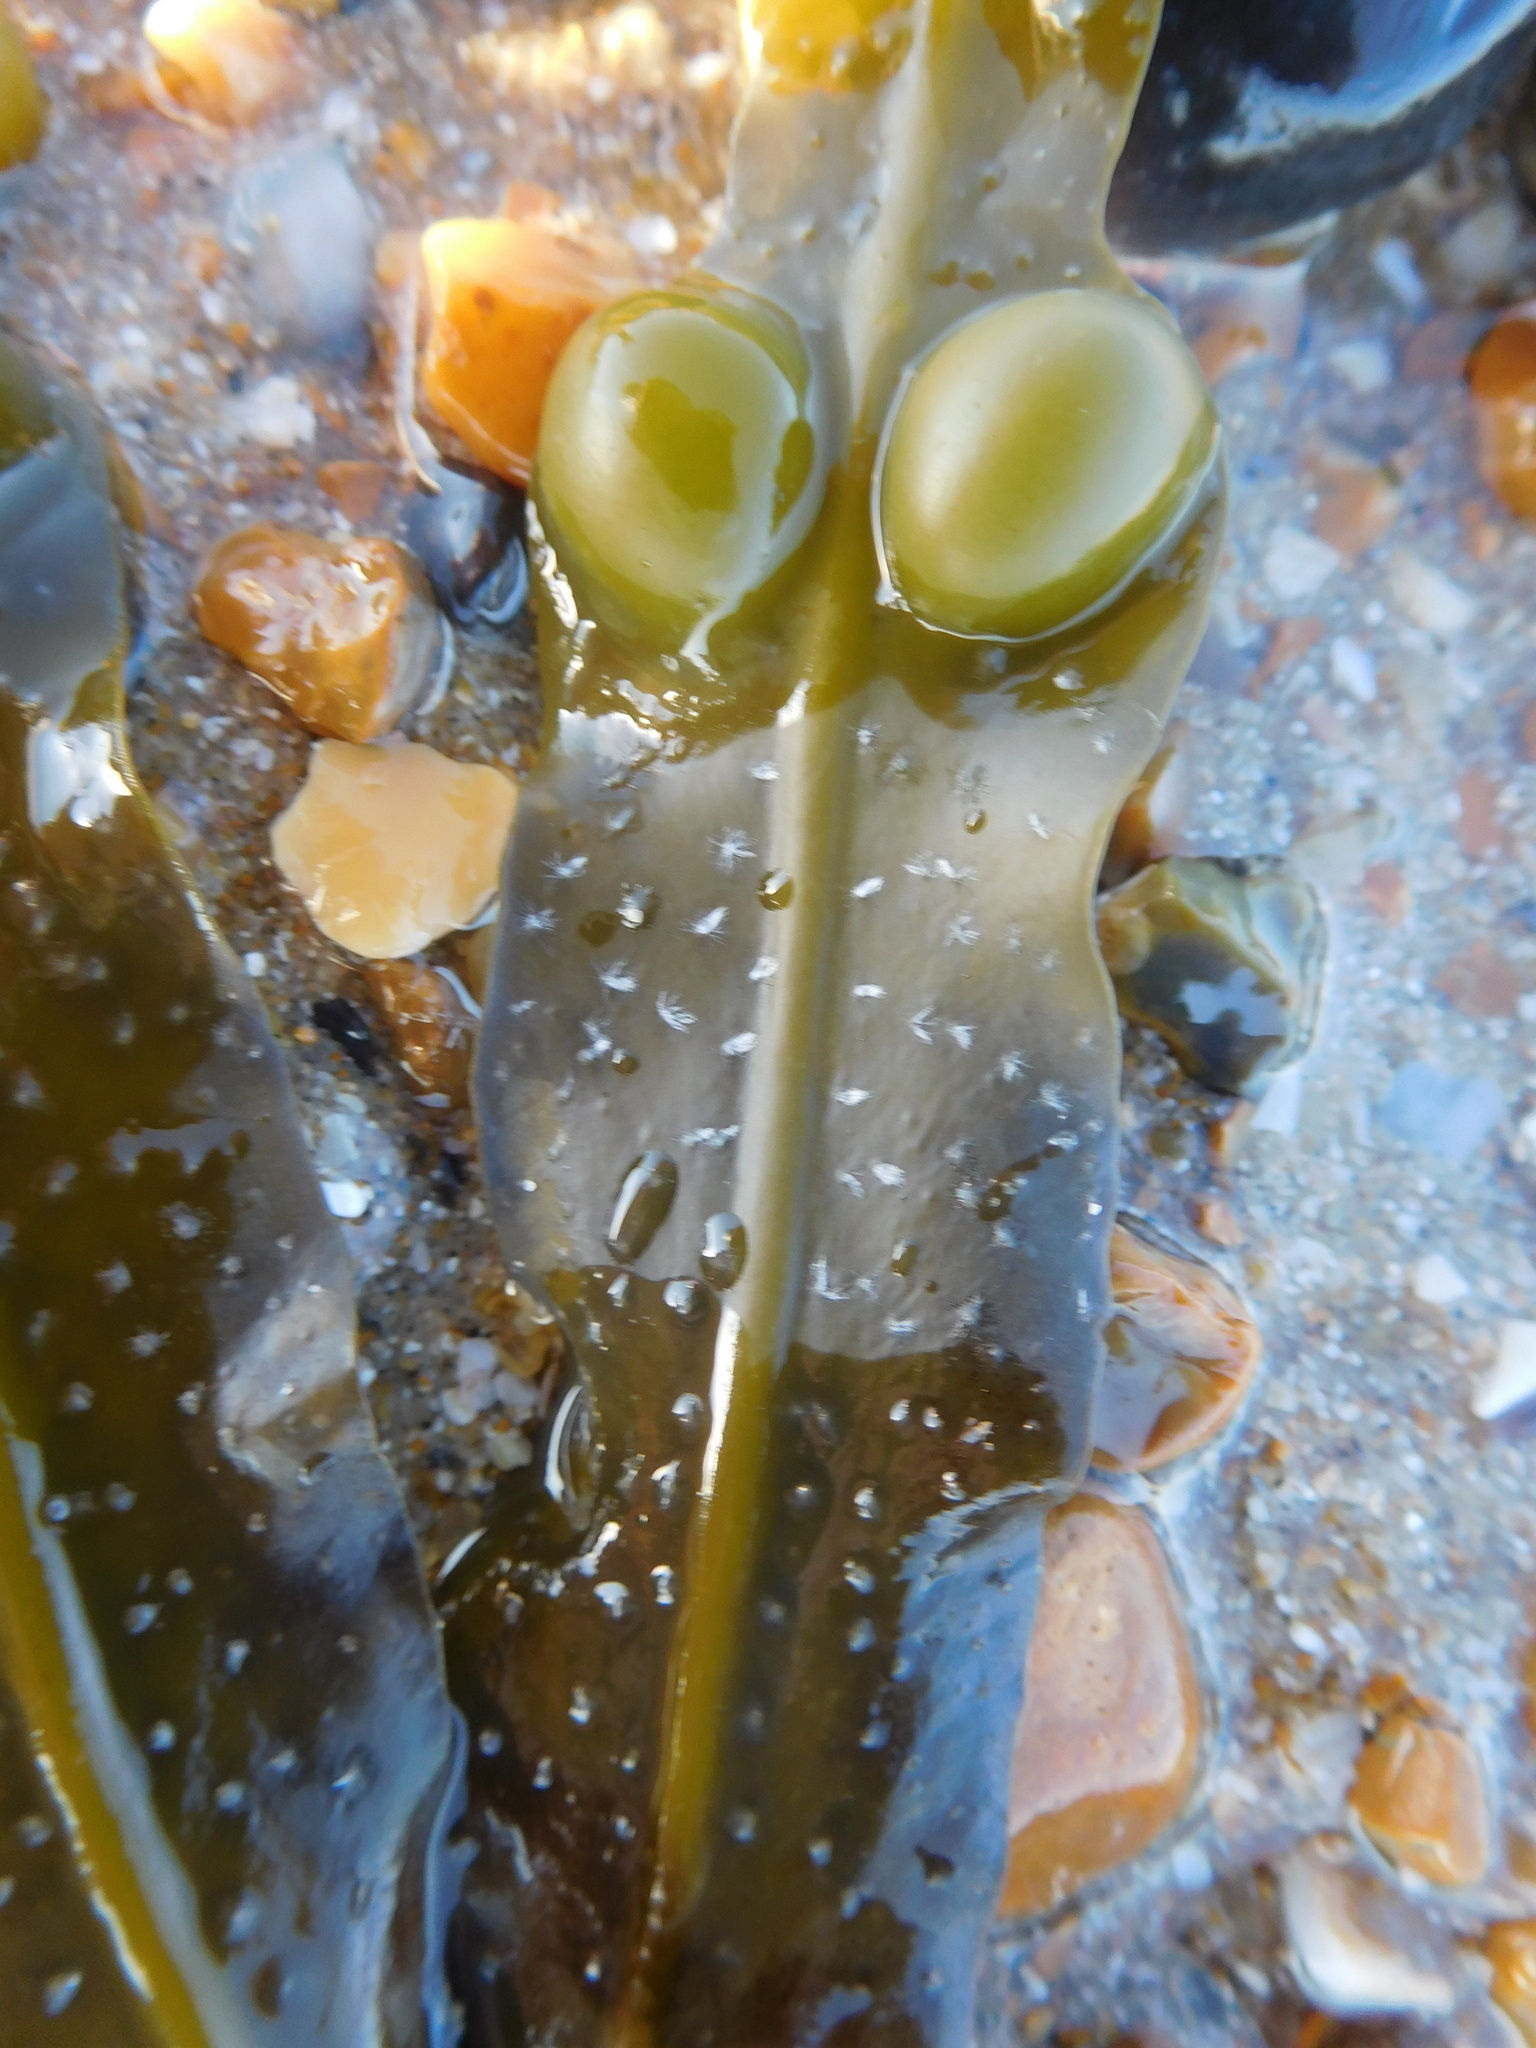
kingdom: Chromista
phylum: Ochrophyta
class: Phaeophyceae
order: Fucales
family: Fucaceae
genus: Fucus
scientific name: Fucus vesiculosus
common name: Bladder wrack
